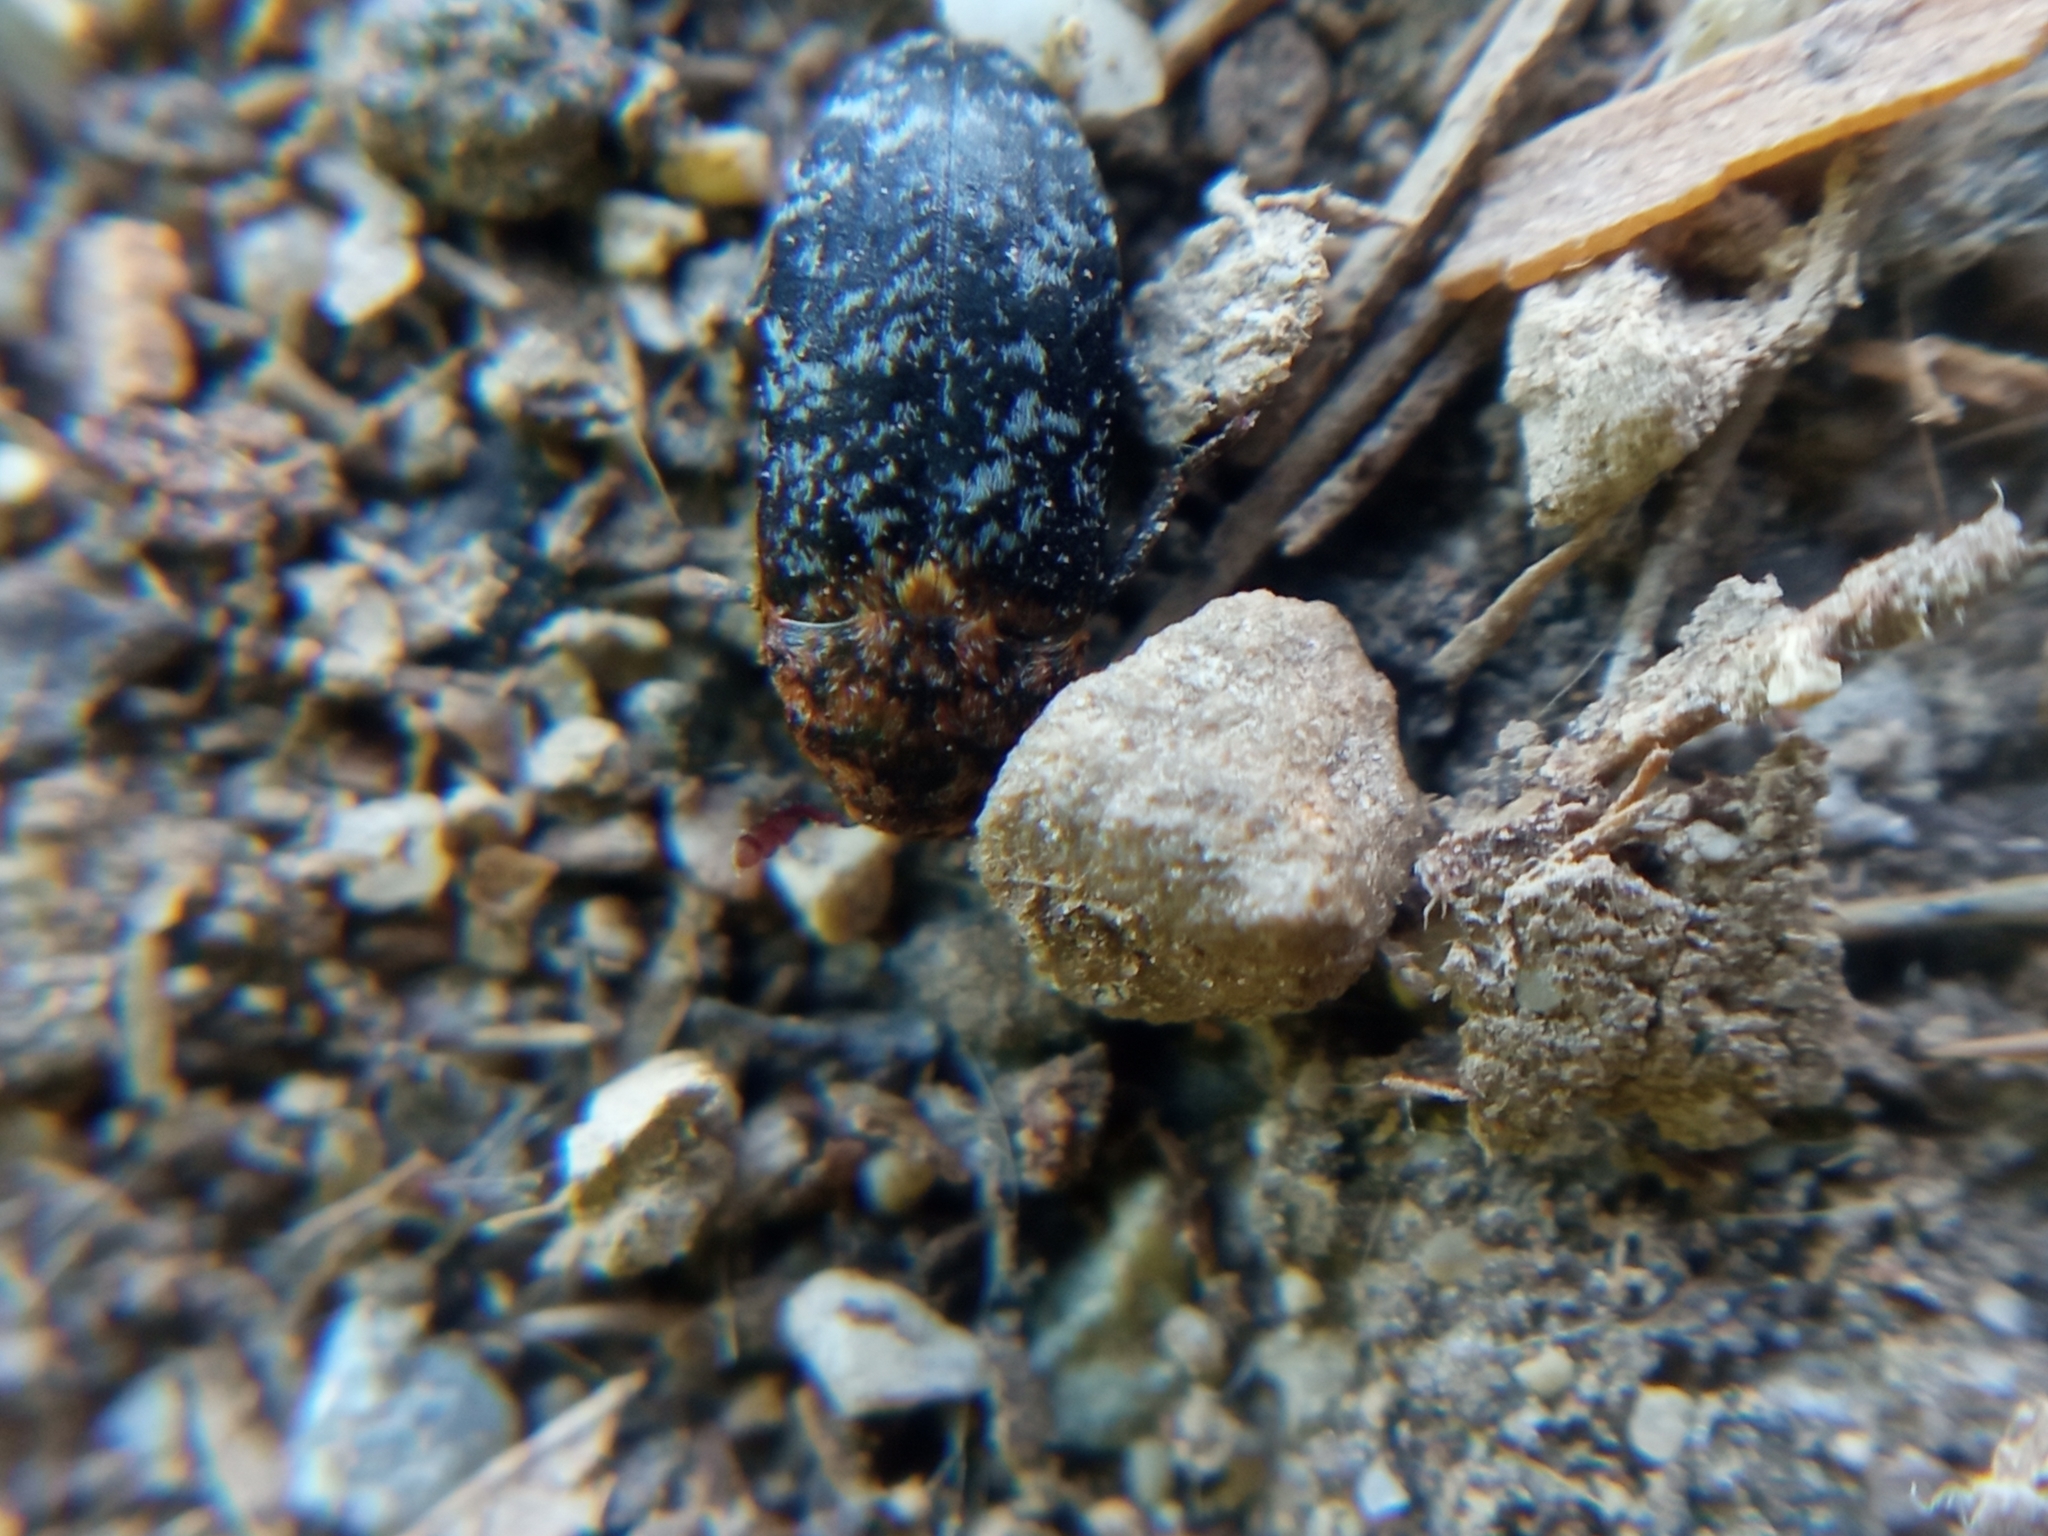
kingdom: Animalia
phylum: Arthropoda
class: Insecta
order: Coleoptera
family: Dermestidae
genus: Dermestes
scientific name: Dermestes undulatus
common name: Wavy carpet beetle
